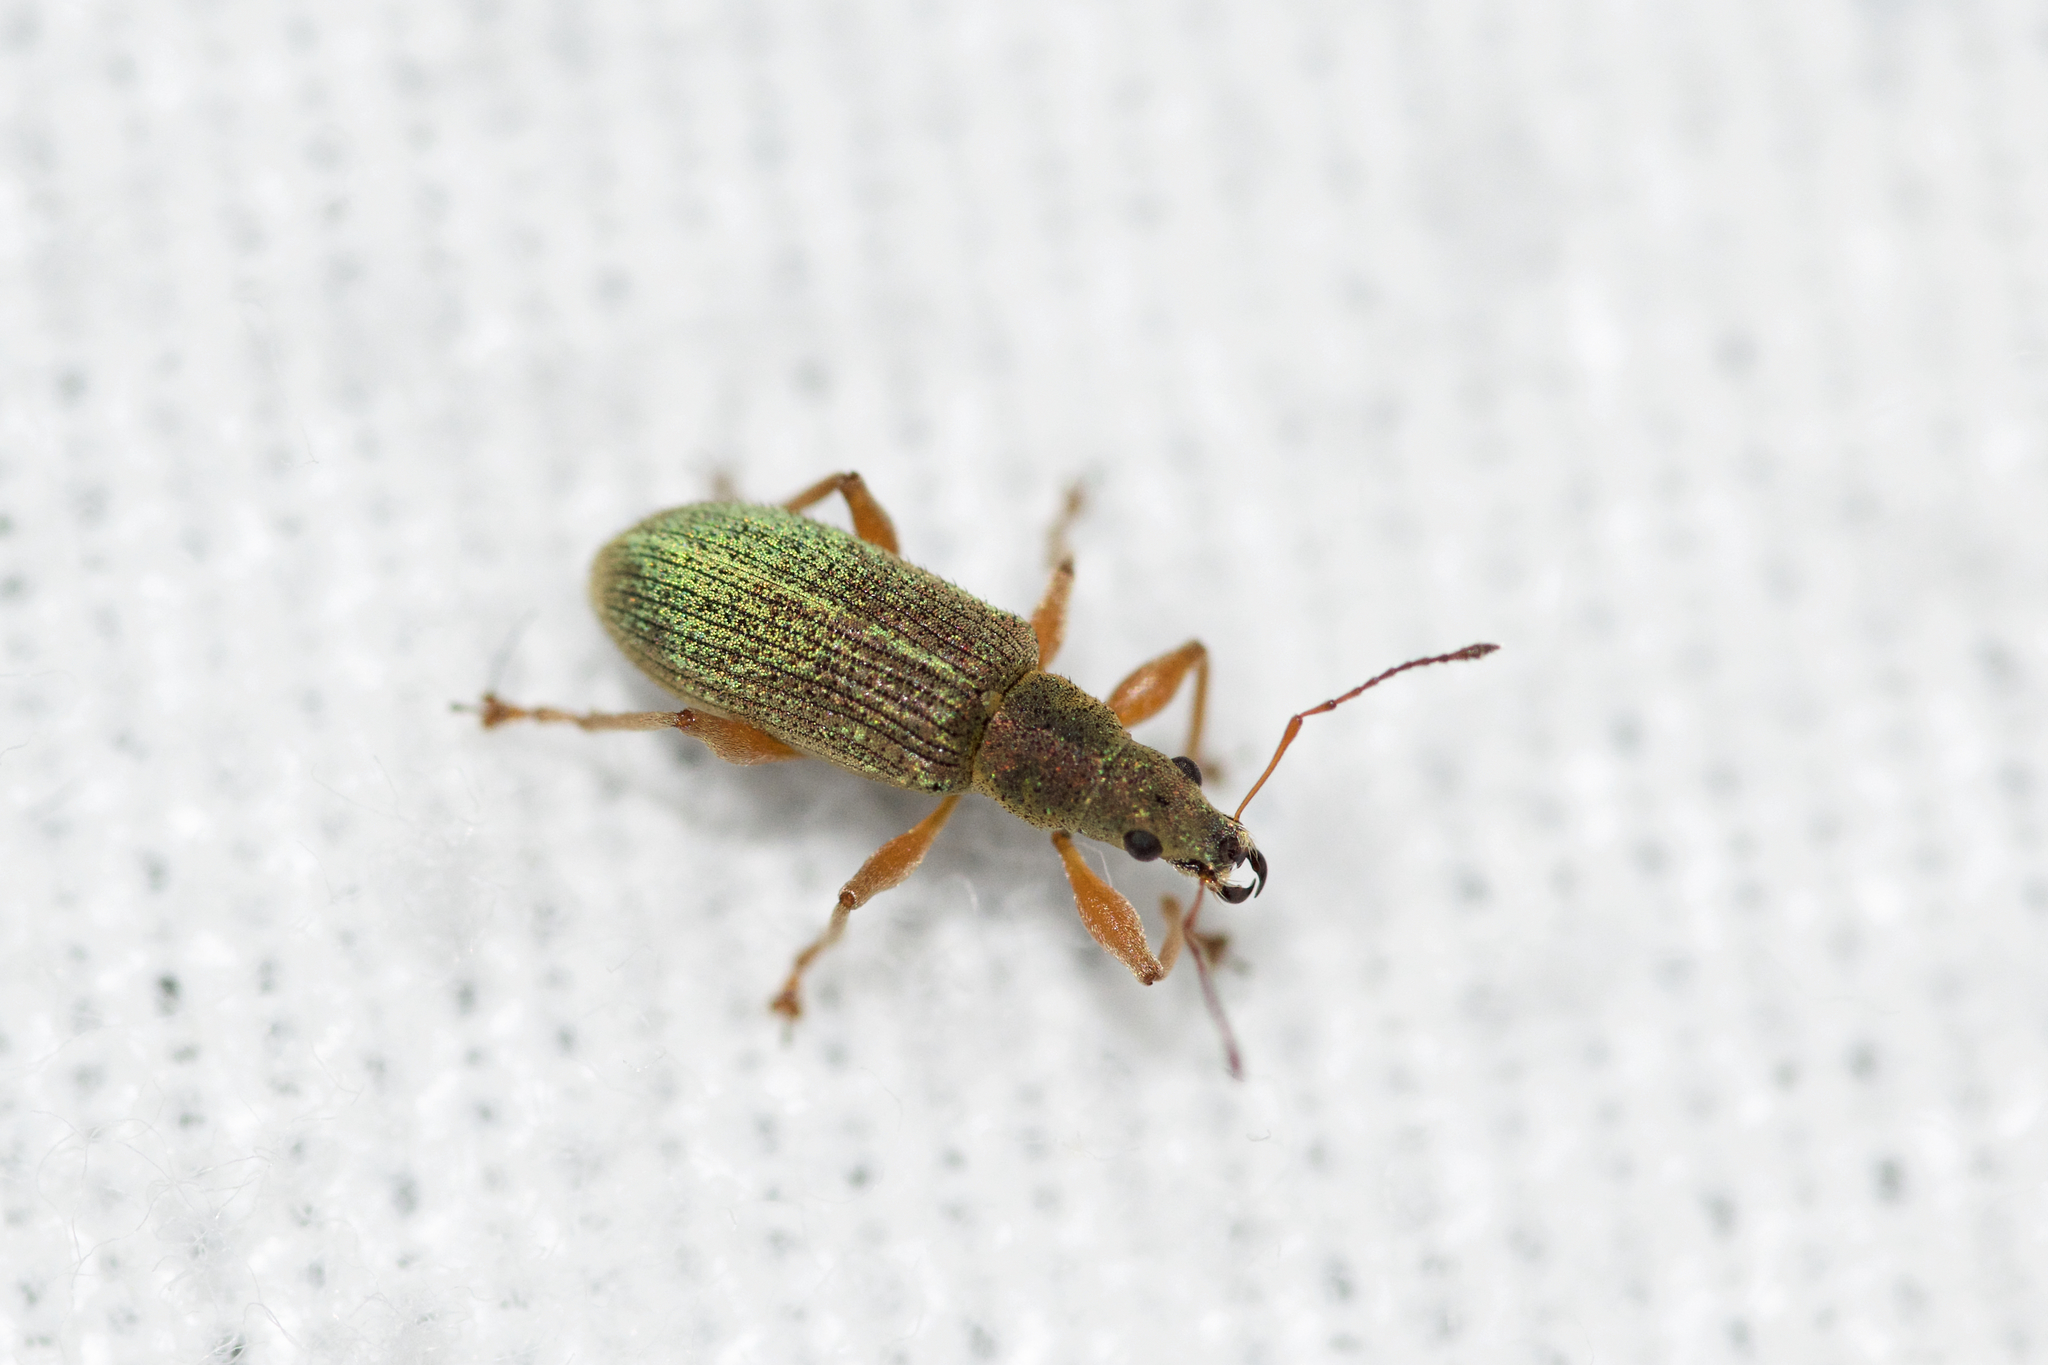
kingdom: Animalia
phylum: Arthropoda
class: Insecta
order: Coleoptera
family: Curculionidae
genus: Polydrusus
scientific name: Polydrusus impressifrons
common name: Weevil
